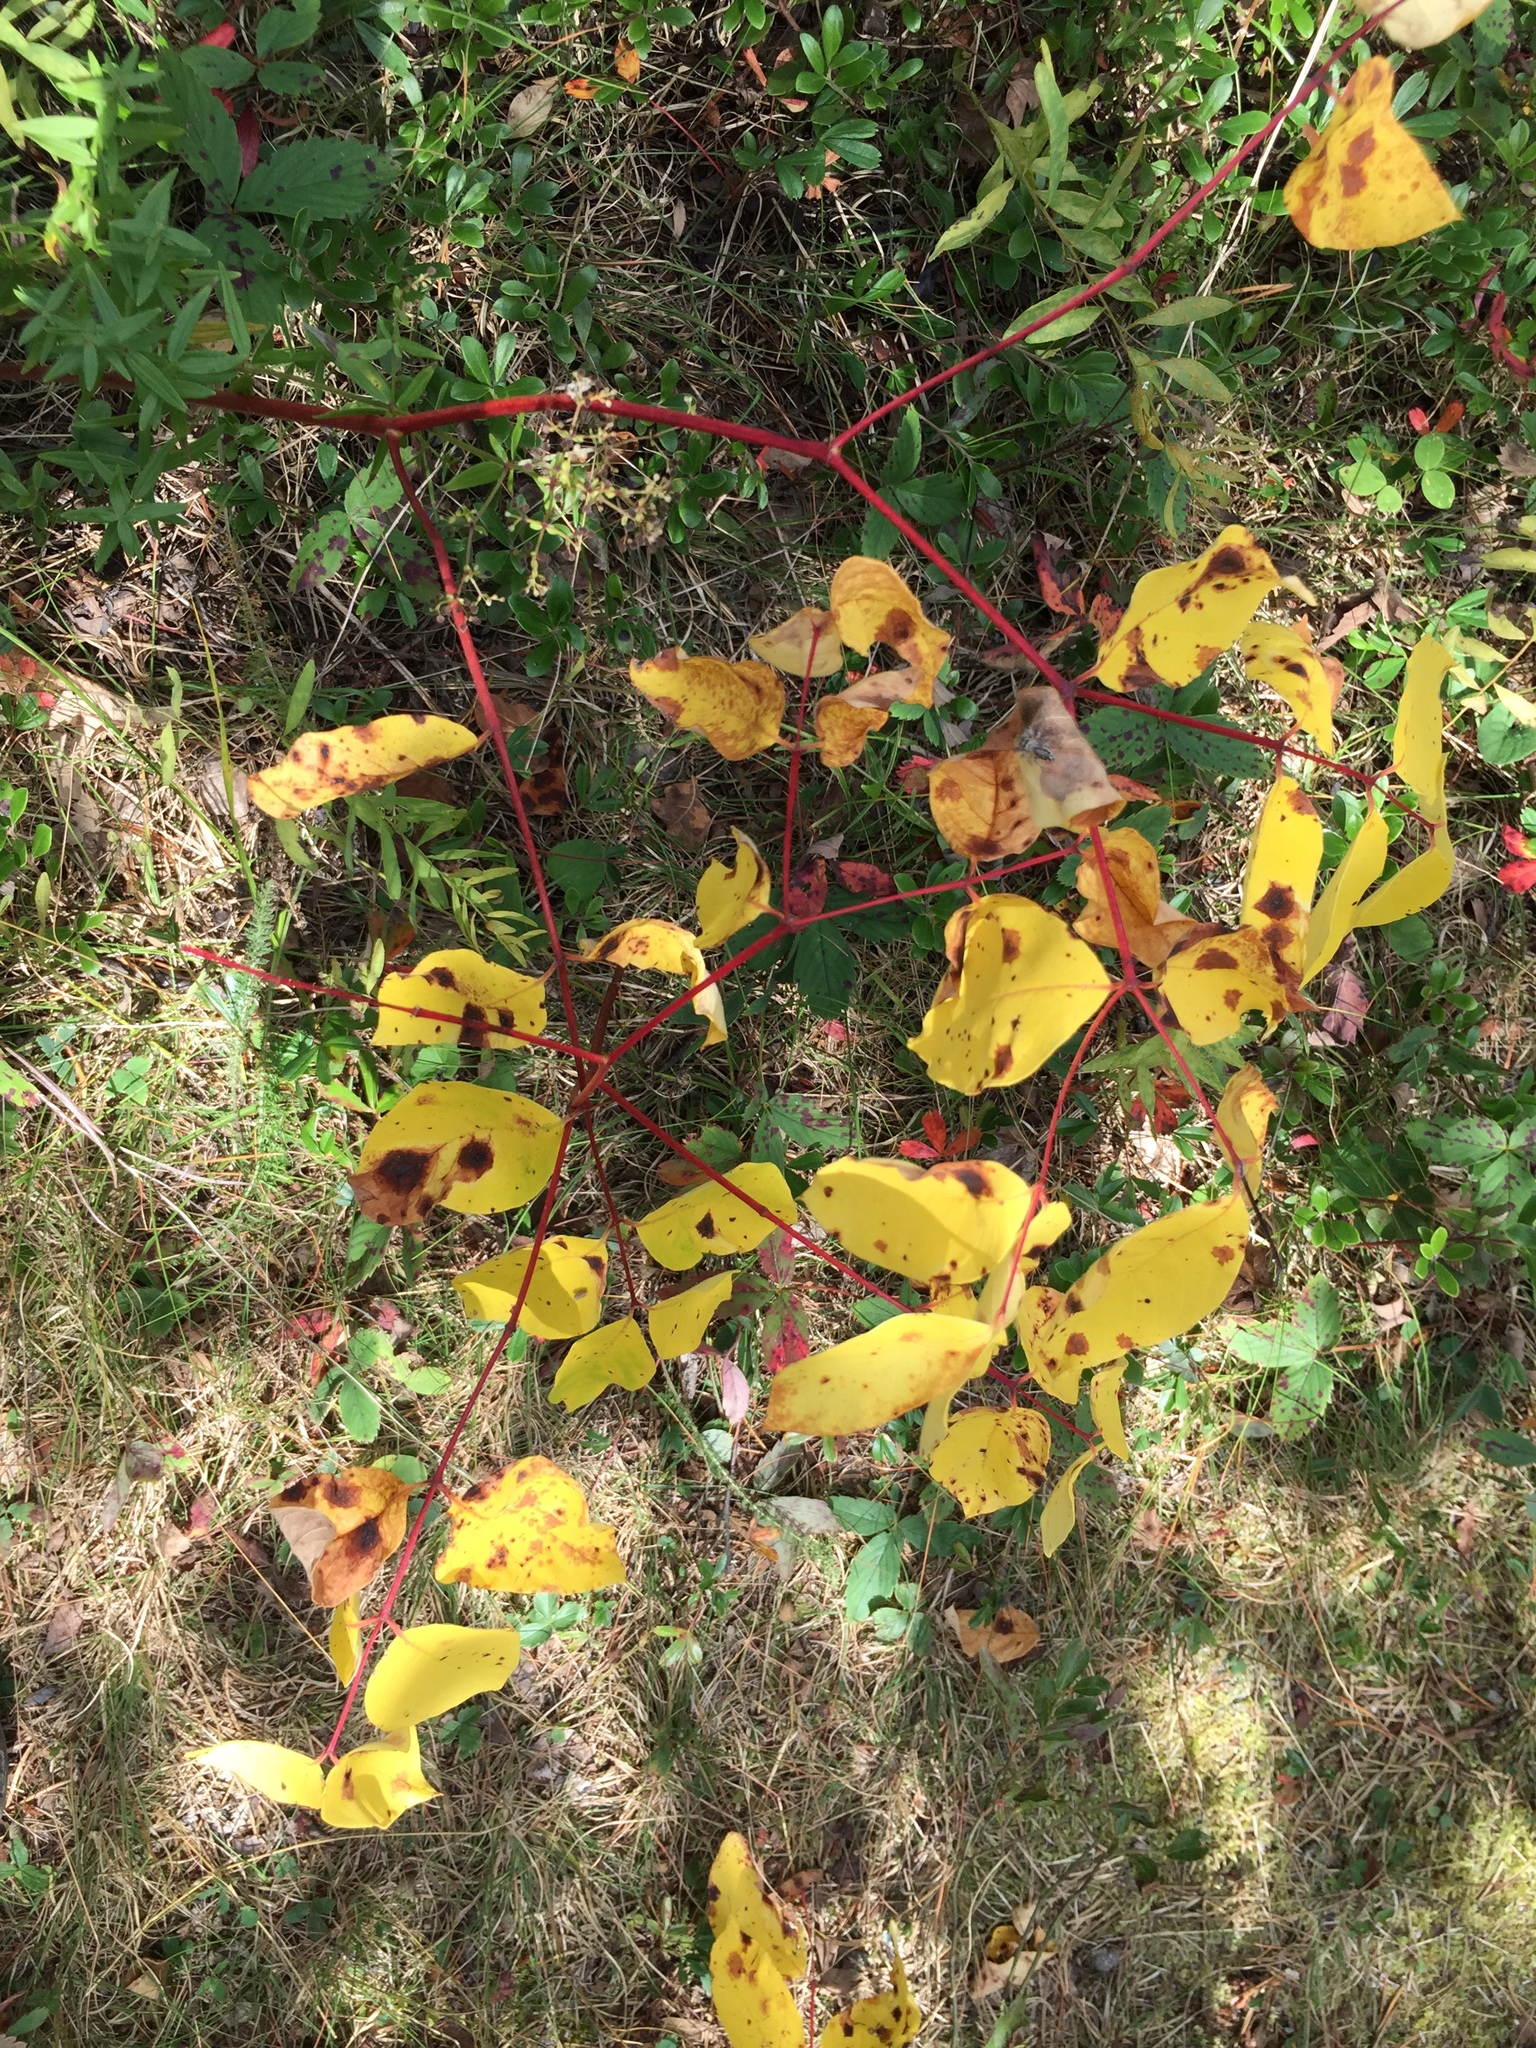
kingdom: Plantae
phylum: Tracheophyta
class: Magnoliopsida
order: Gentianales
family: Apocynaceae
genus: Apocynum
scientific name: Apocynum androsaemifolium
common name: Spreading dogbane
